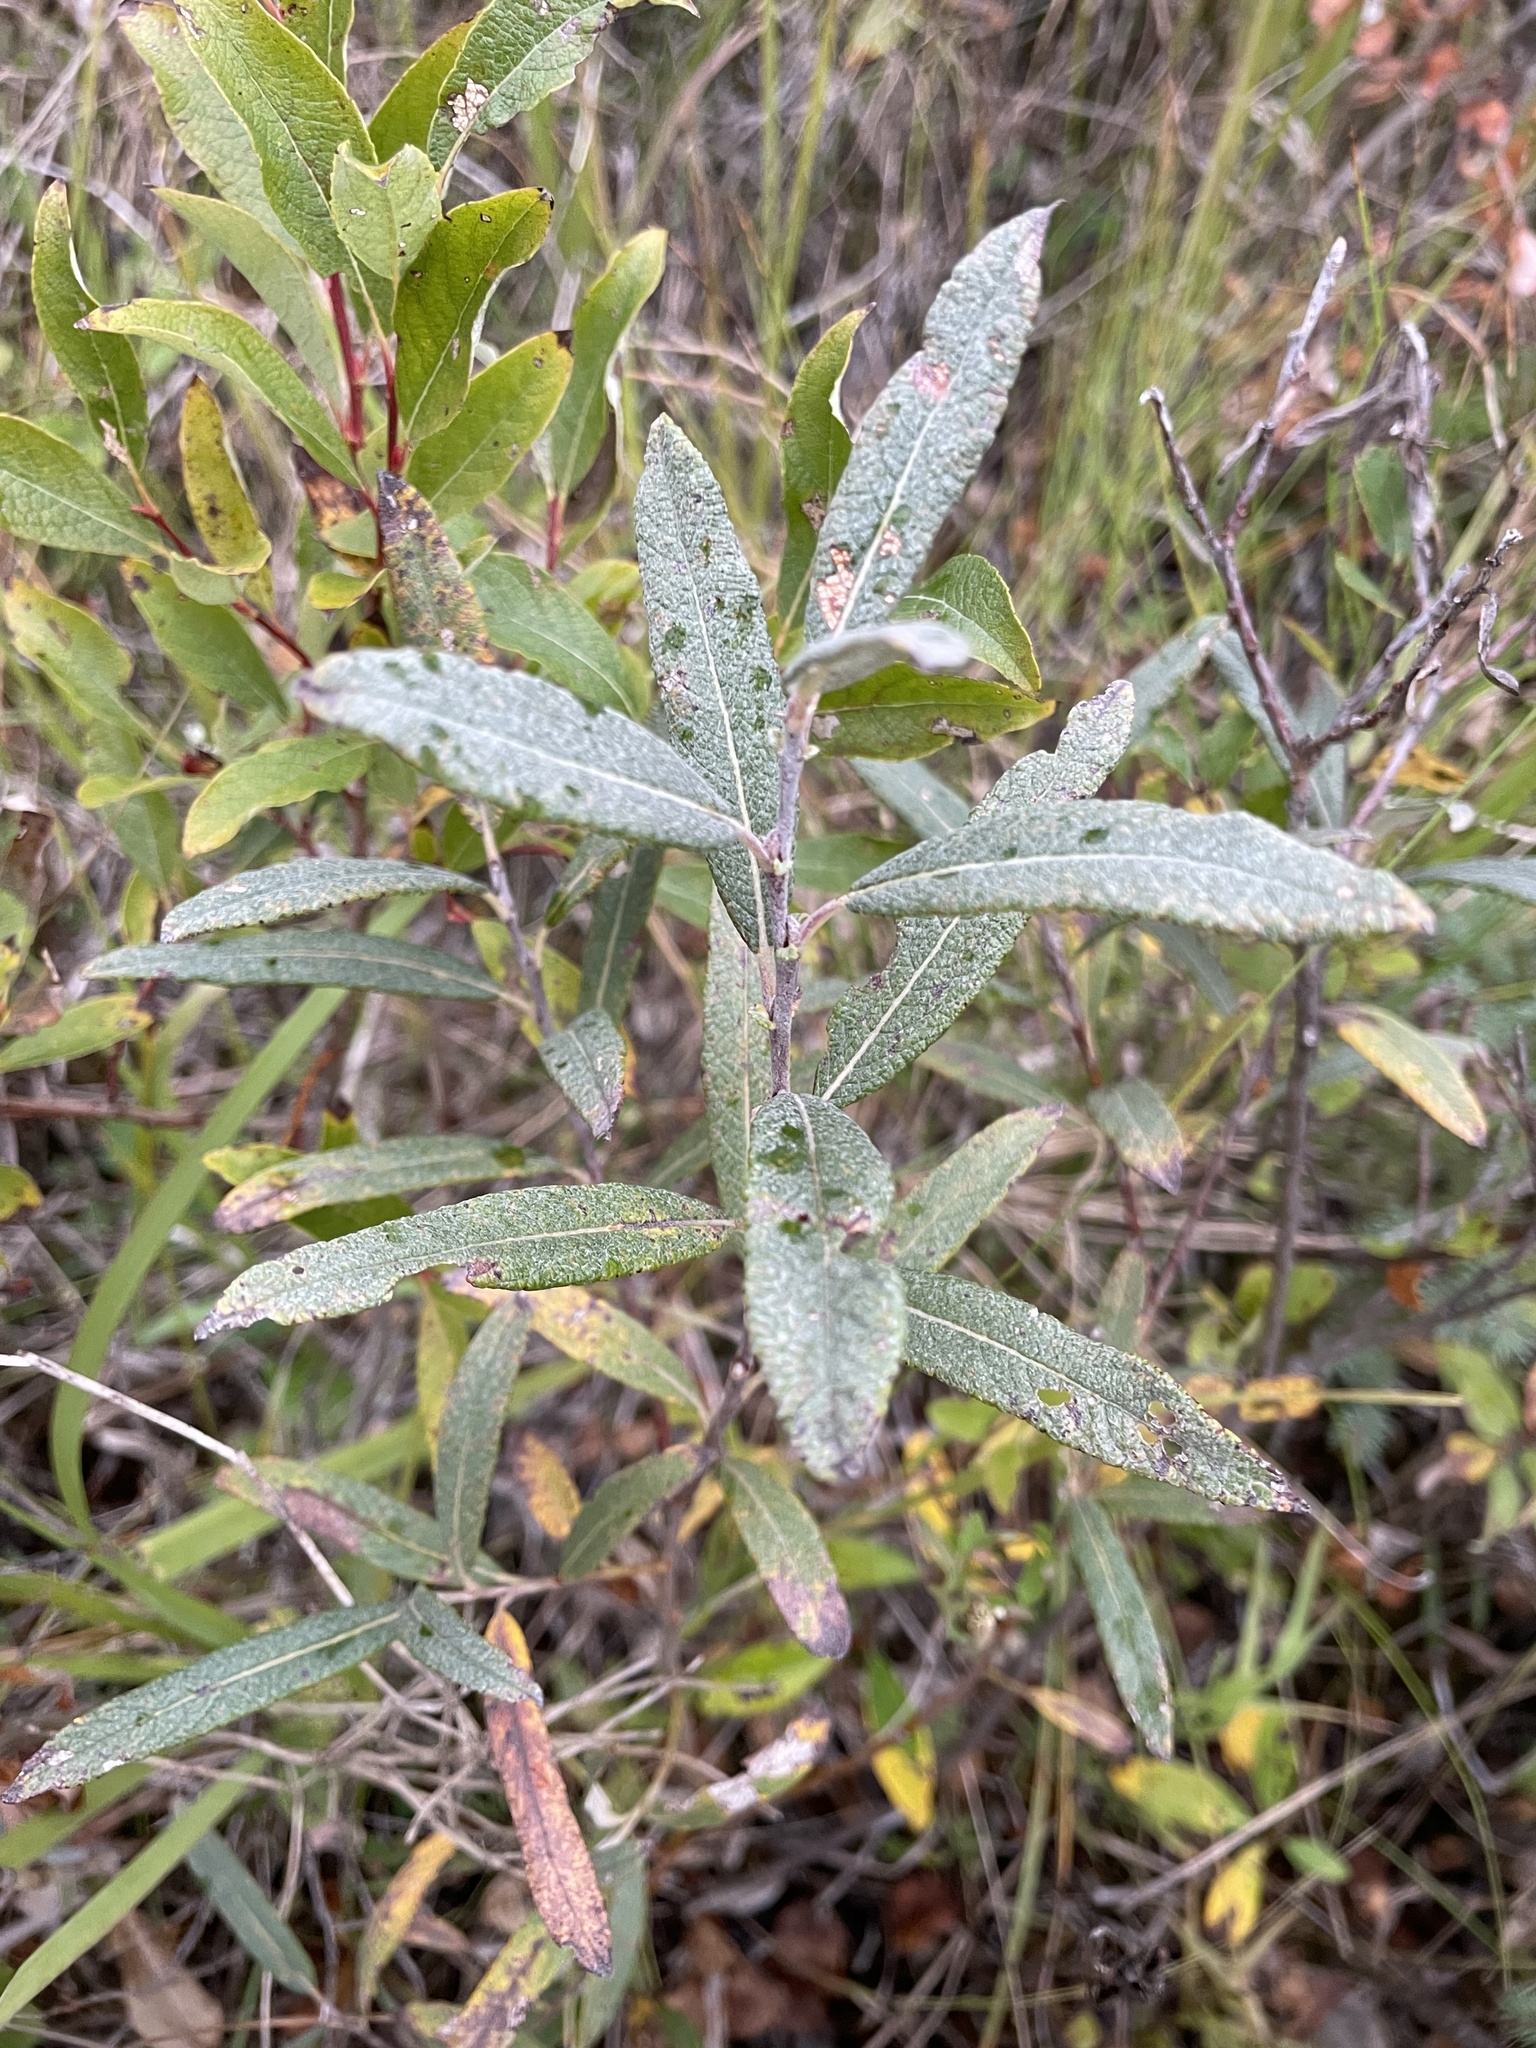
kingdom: Plantae
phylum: Tracheophyta
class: Magnoliopsida
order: Malpighiales
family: Salicaceae
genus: Salix
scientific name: Salix candida
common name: Hoary willow
